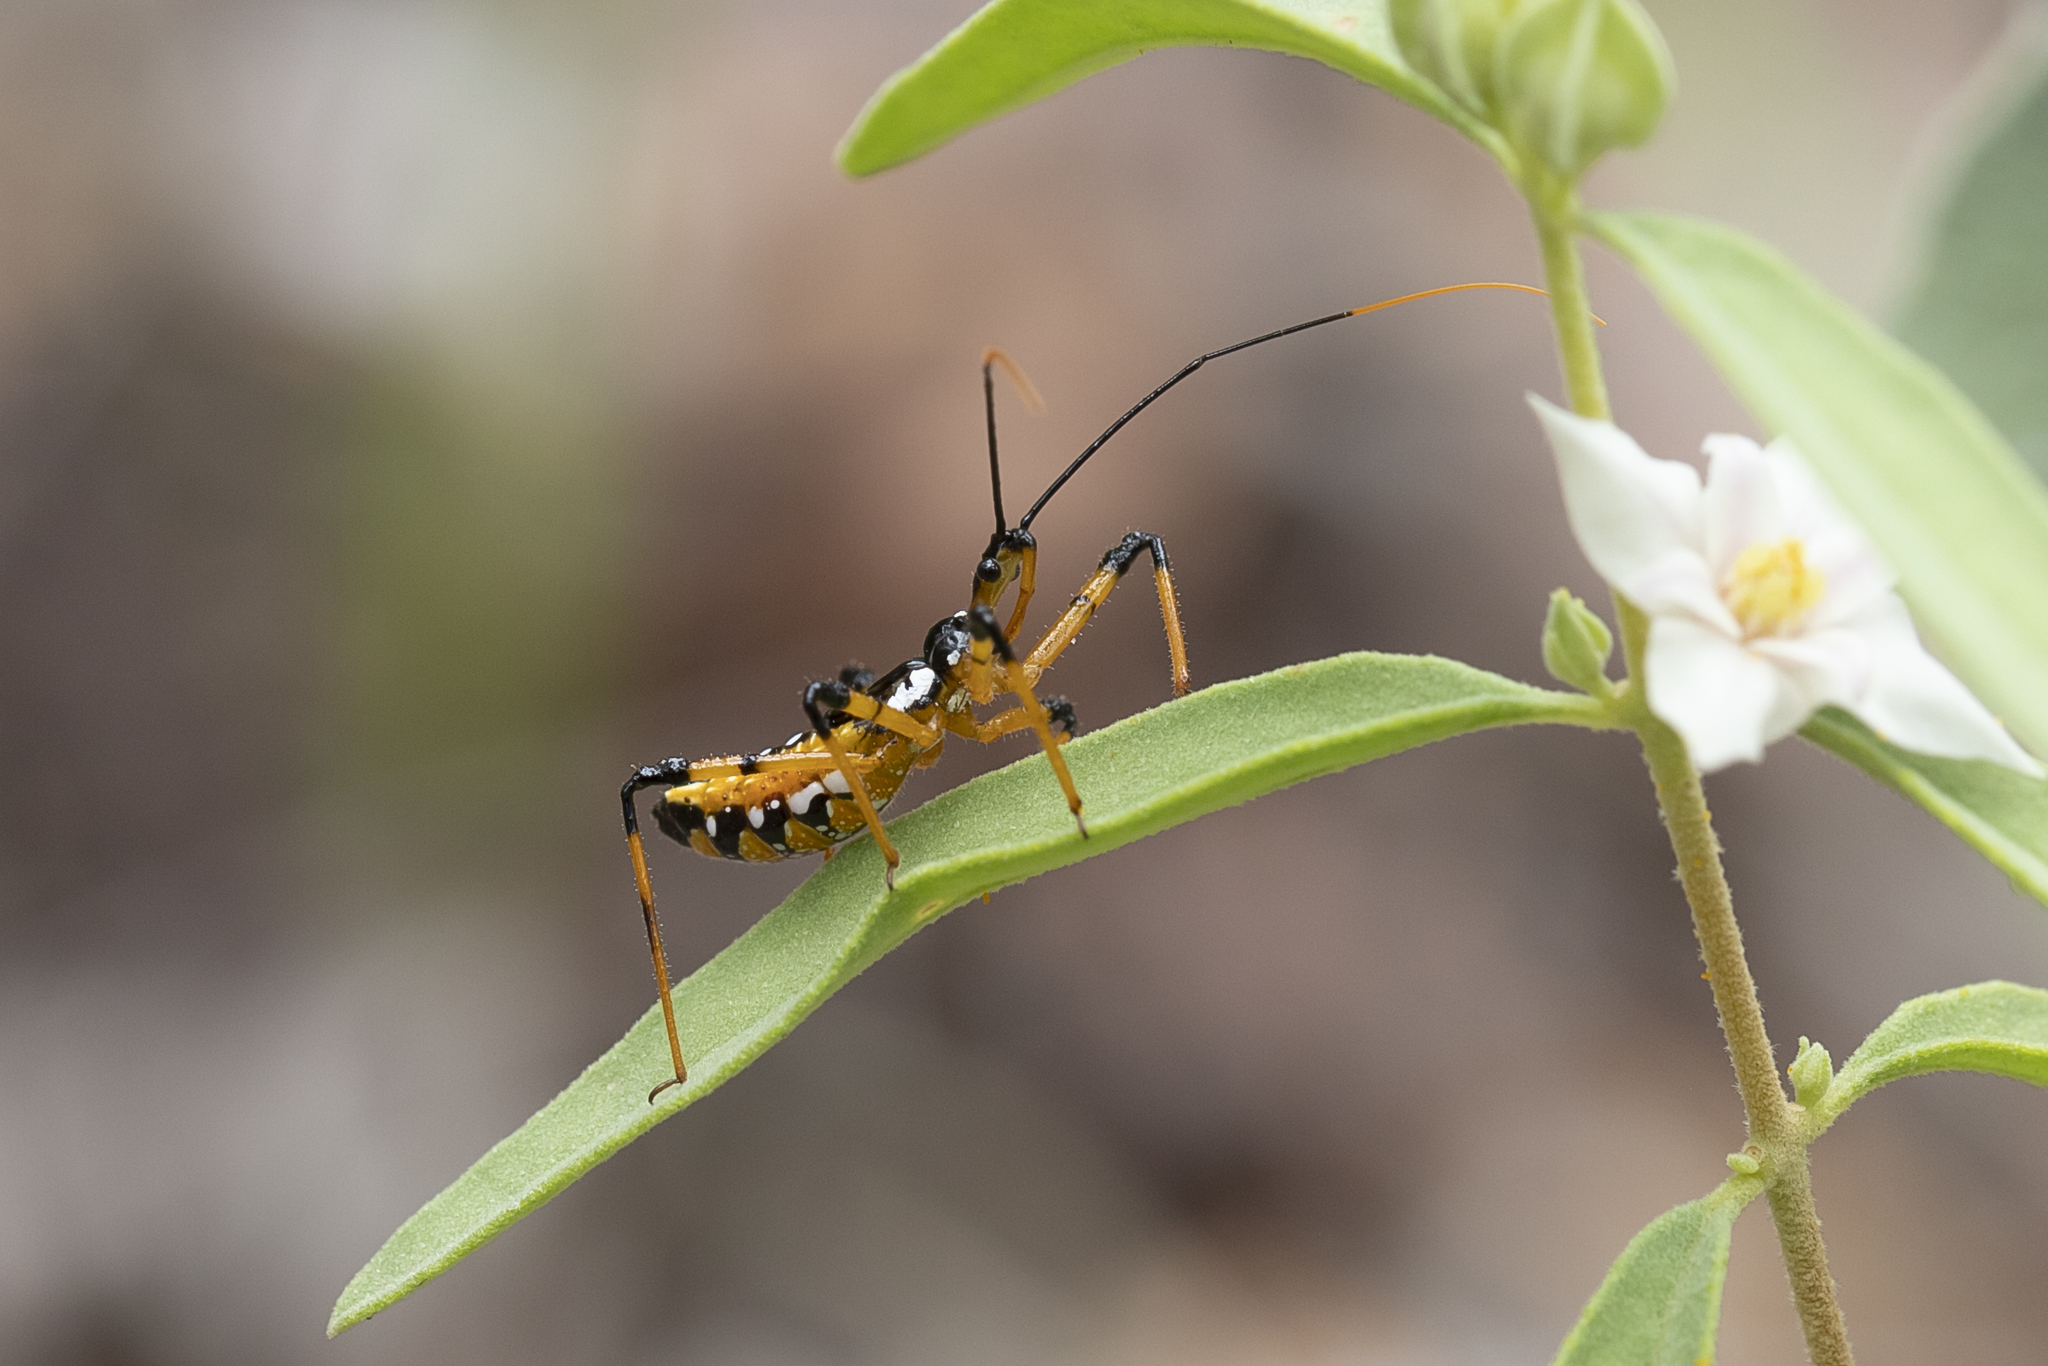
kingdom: Animalia
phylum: Arthropoda
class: Insecta
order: Hemiptera
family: Reduviidae
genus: Pristhesancus
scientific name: Pristhesancus plagipennis
